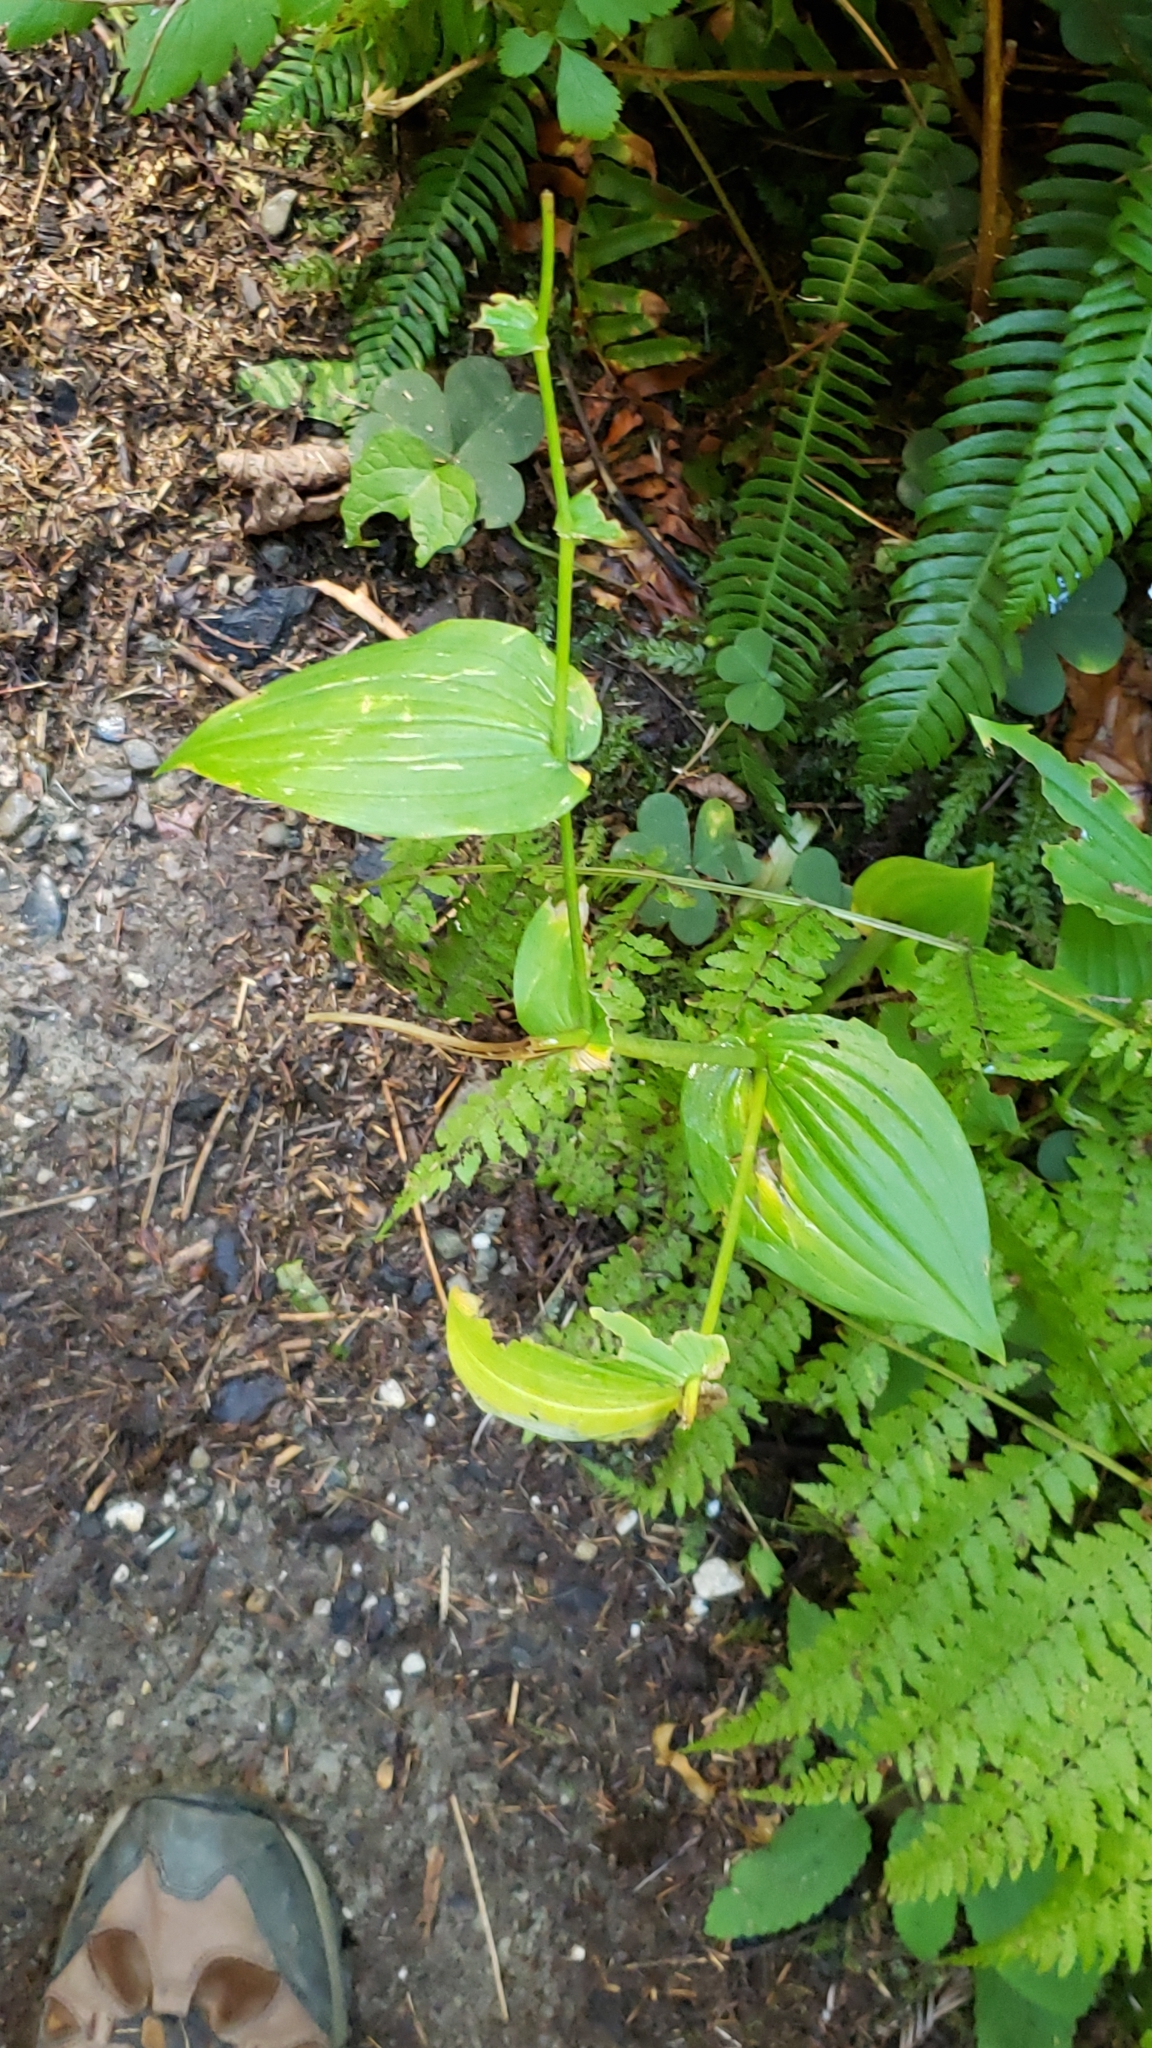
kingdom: Plantae
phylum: Tracheophyta
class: Liliopsida
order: Liliales
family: Liliaceae
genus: Streptopus
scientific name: Streptopus amplexifolius
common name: Clasp twisted stalk
